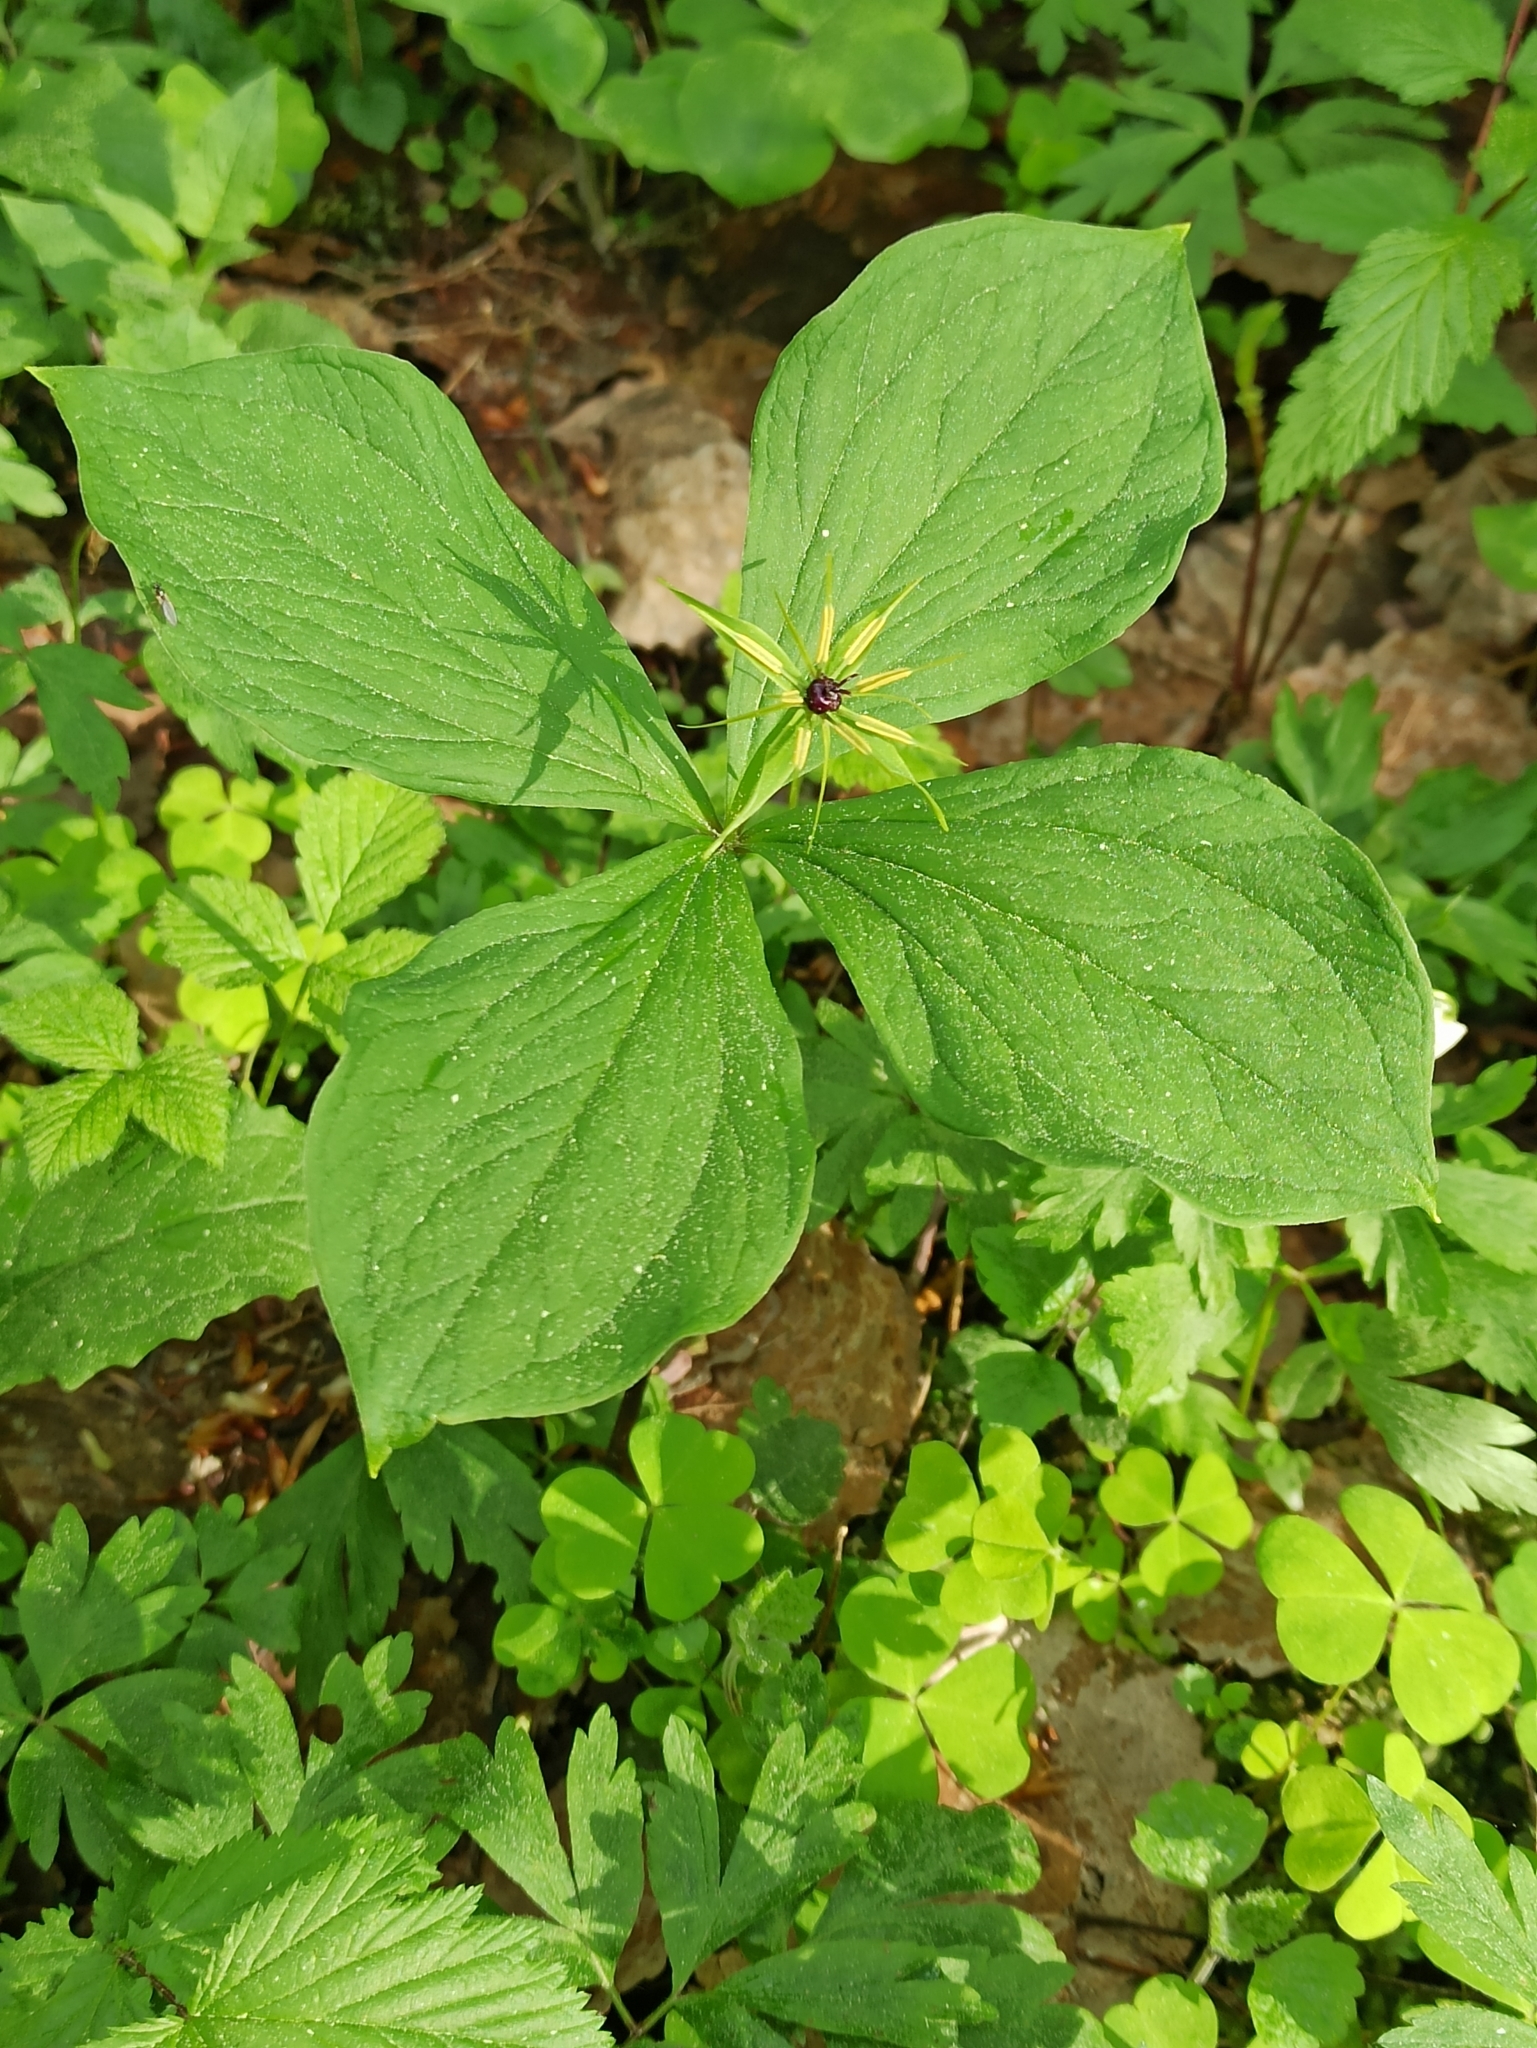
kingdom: Plantae
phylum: Tracheophyta
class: Liliopsida
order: Liliales
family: Melanthiaceae
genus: Paris
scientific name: Paris quadrifolia
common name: Herb-paris
